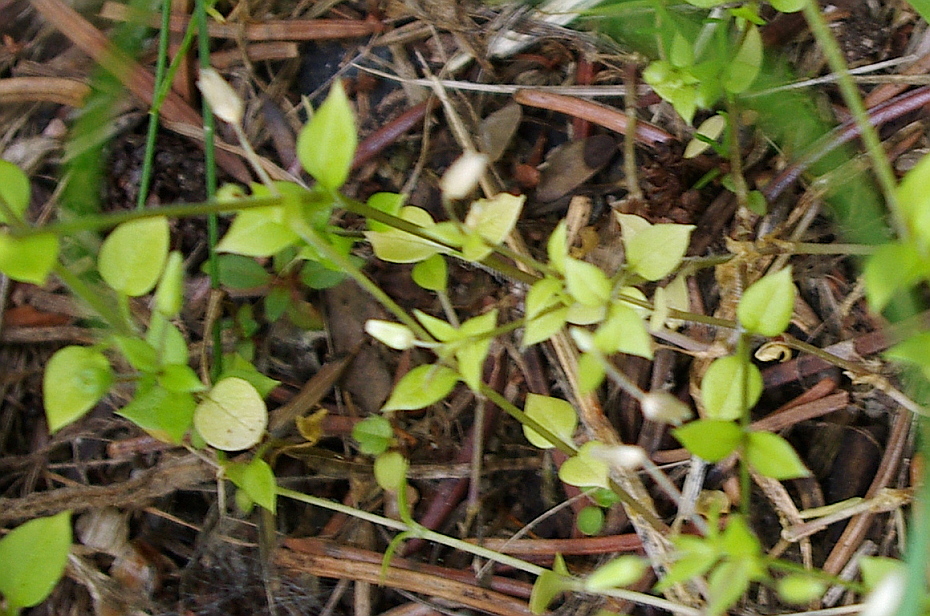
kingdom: Plantae
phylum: Tracheophyta
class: Magnoliopsida
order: Caryophyllales
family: Caryophyllaceae
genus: Stellaria
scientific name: Stellaria media
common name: Common chickweed
